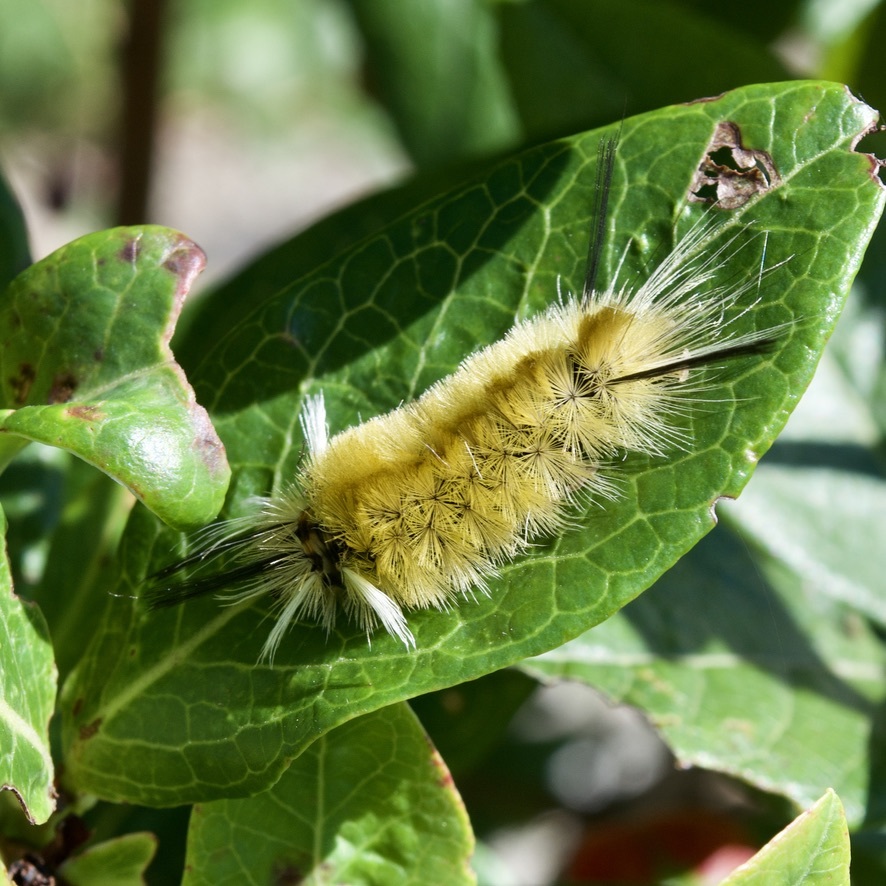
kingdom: Animalia
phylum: Arthropoda
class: Insecta
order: Lepidoptera
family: Erebidae
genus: Halysidota
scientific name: Halysidota tessellaris
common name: Banded tussock moth
